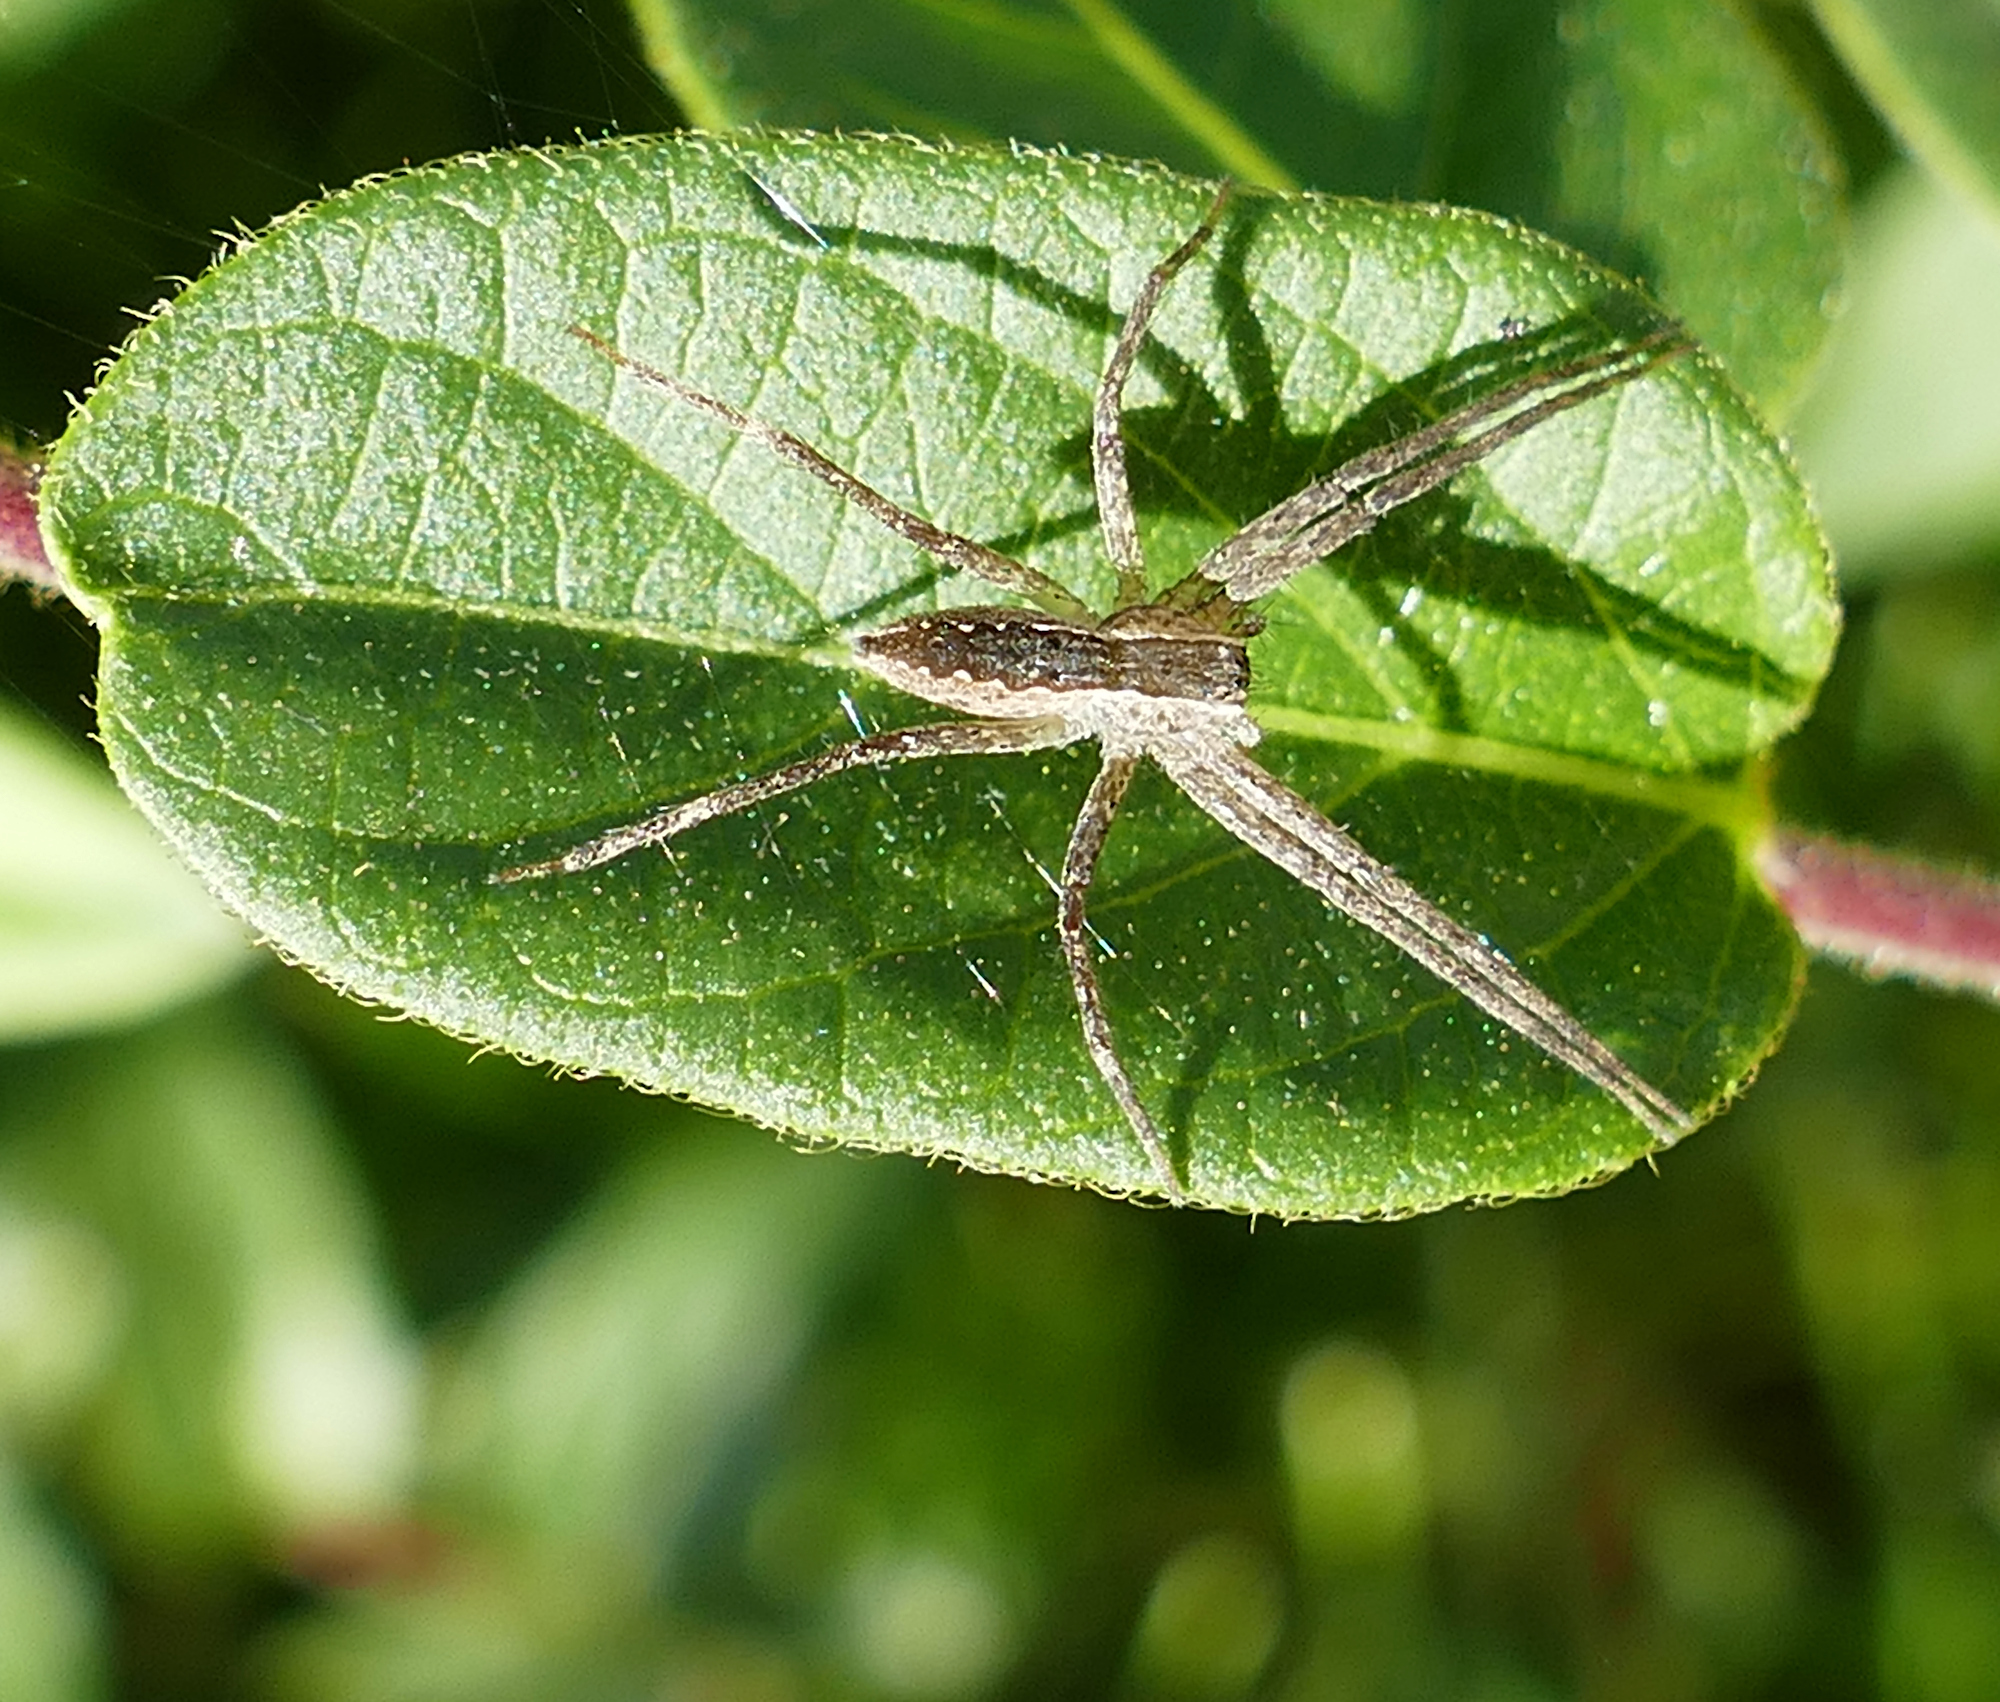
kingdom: Animalia
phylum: Arthropoda
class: Arachnida
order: Araneae
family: Pisauridae
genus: Pisaurina
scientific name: Pisaurina mira
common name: American nursery web spider
